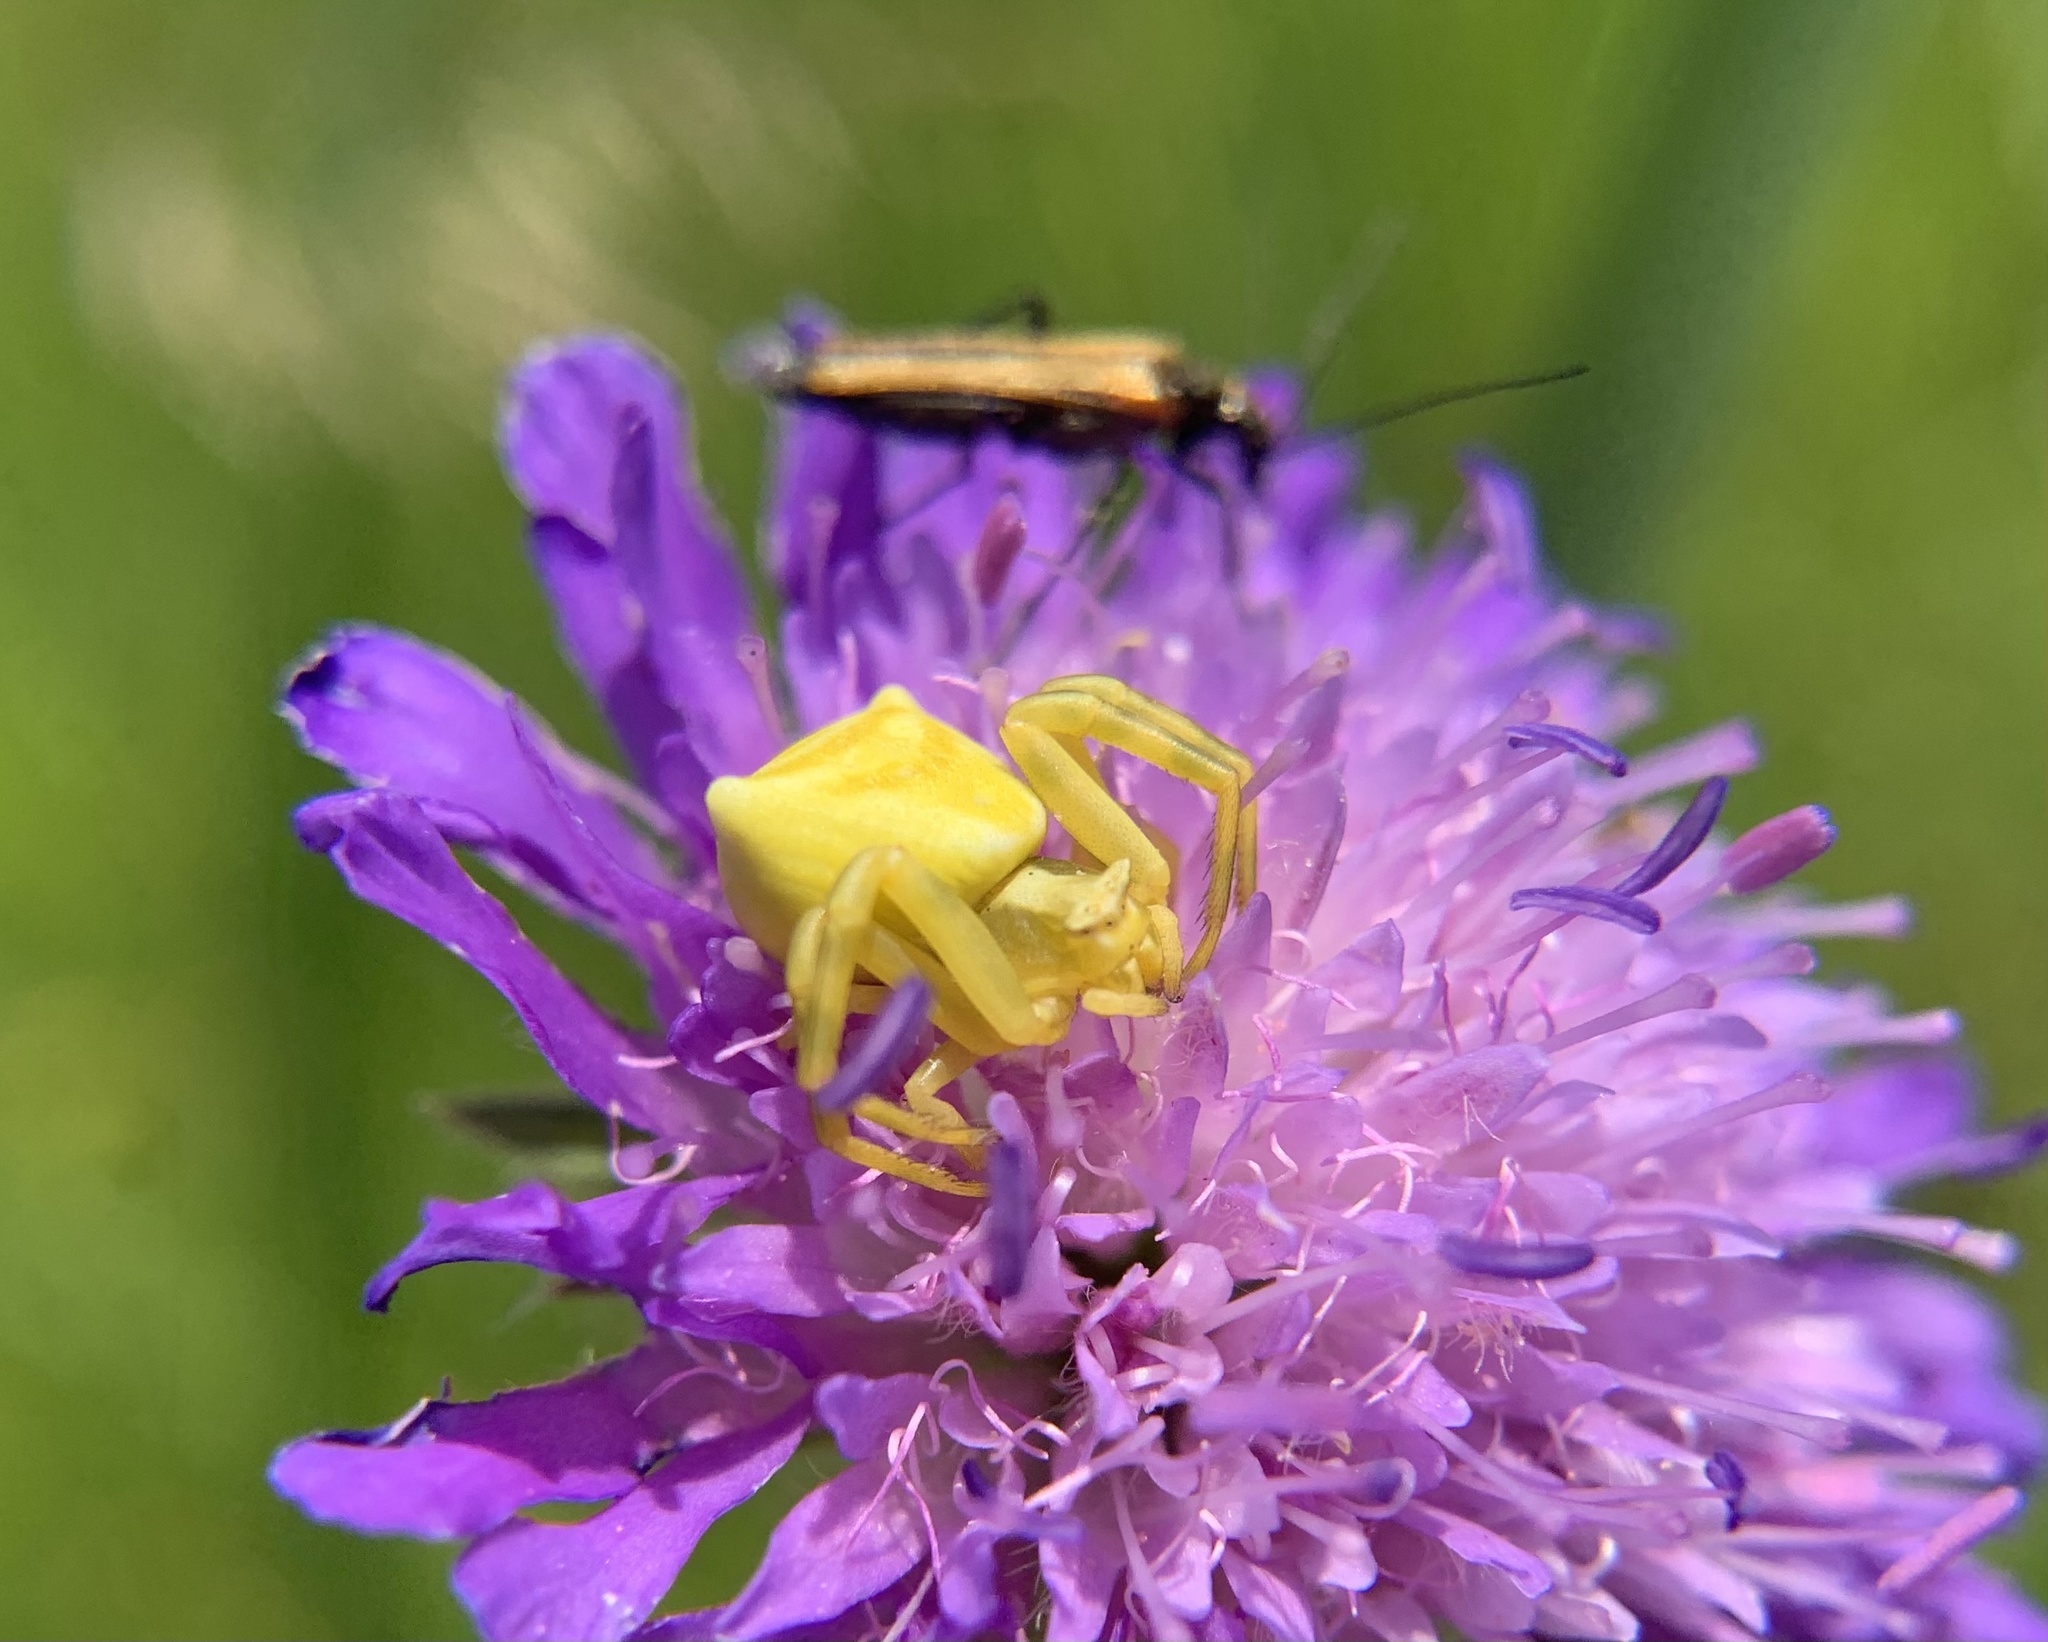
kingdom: Animalia
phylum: Arthropoda
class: Arachnida
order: Araneae
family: Thomisidae
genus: Thomisus
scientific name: Thomisus onustus
